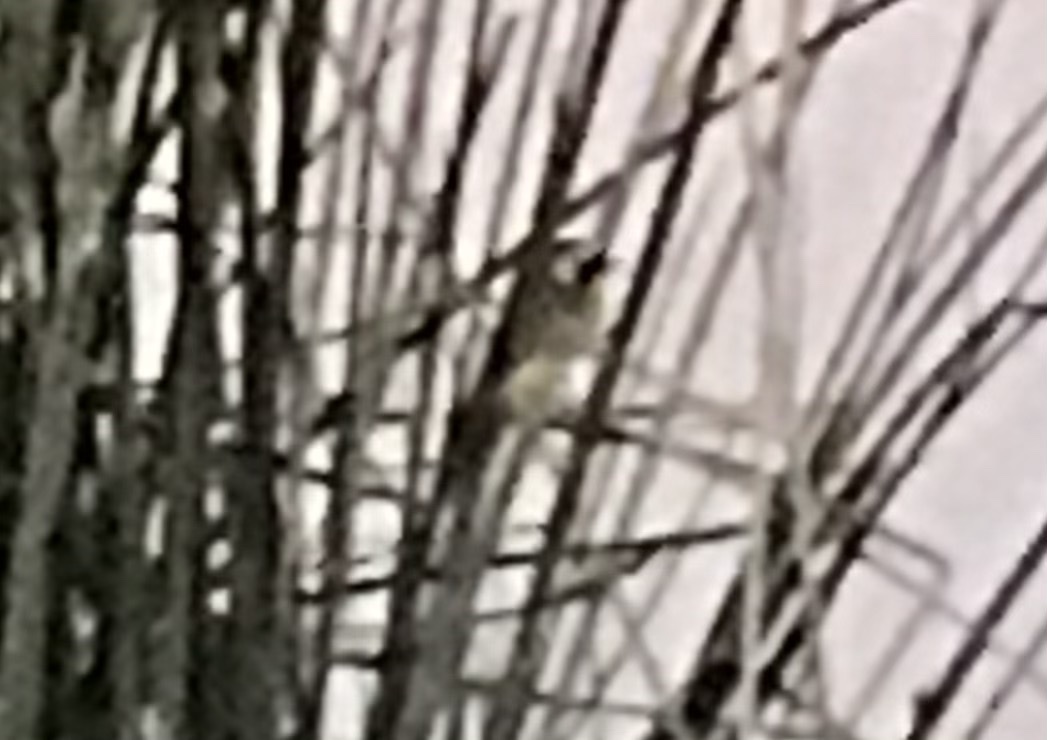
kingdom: Animalia
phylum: Chordata
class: Aves
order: Passeriformes
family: Parulidae
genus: Geothlypis
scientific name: Geothlypis trichas
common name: Common yellowthroat
